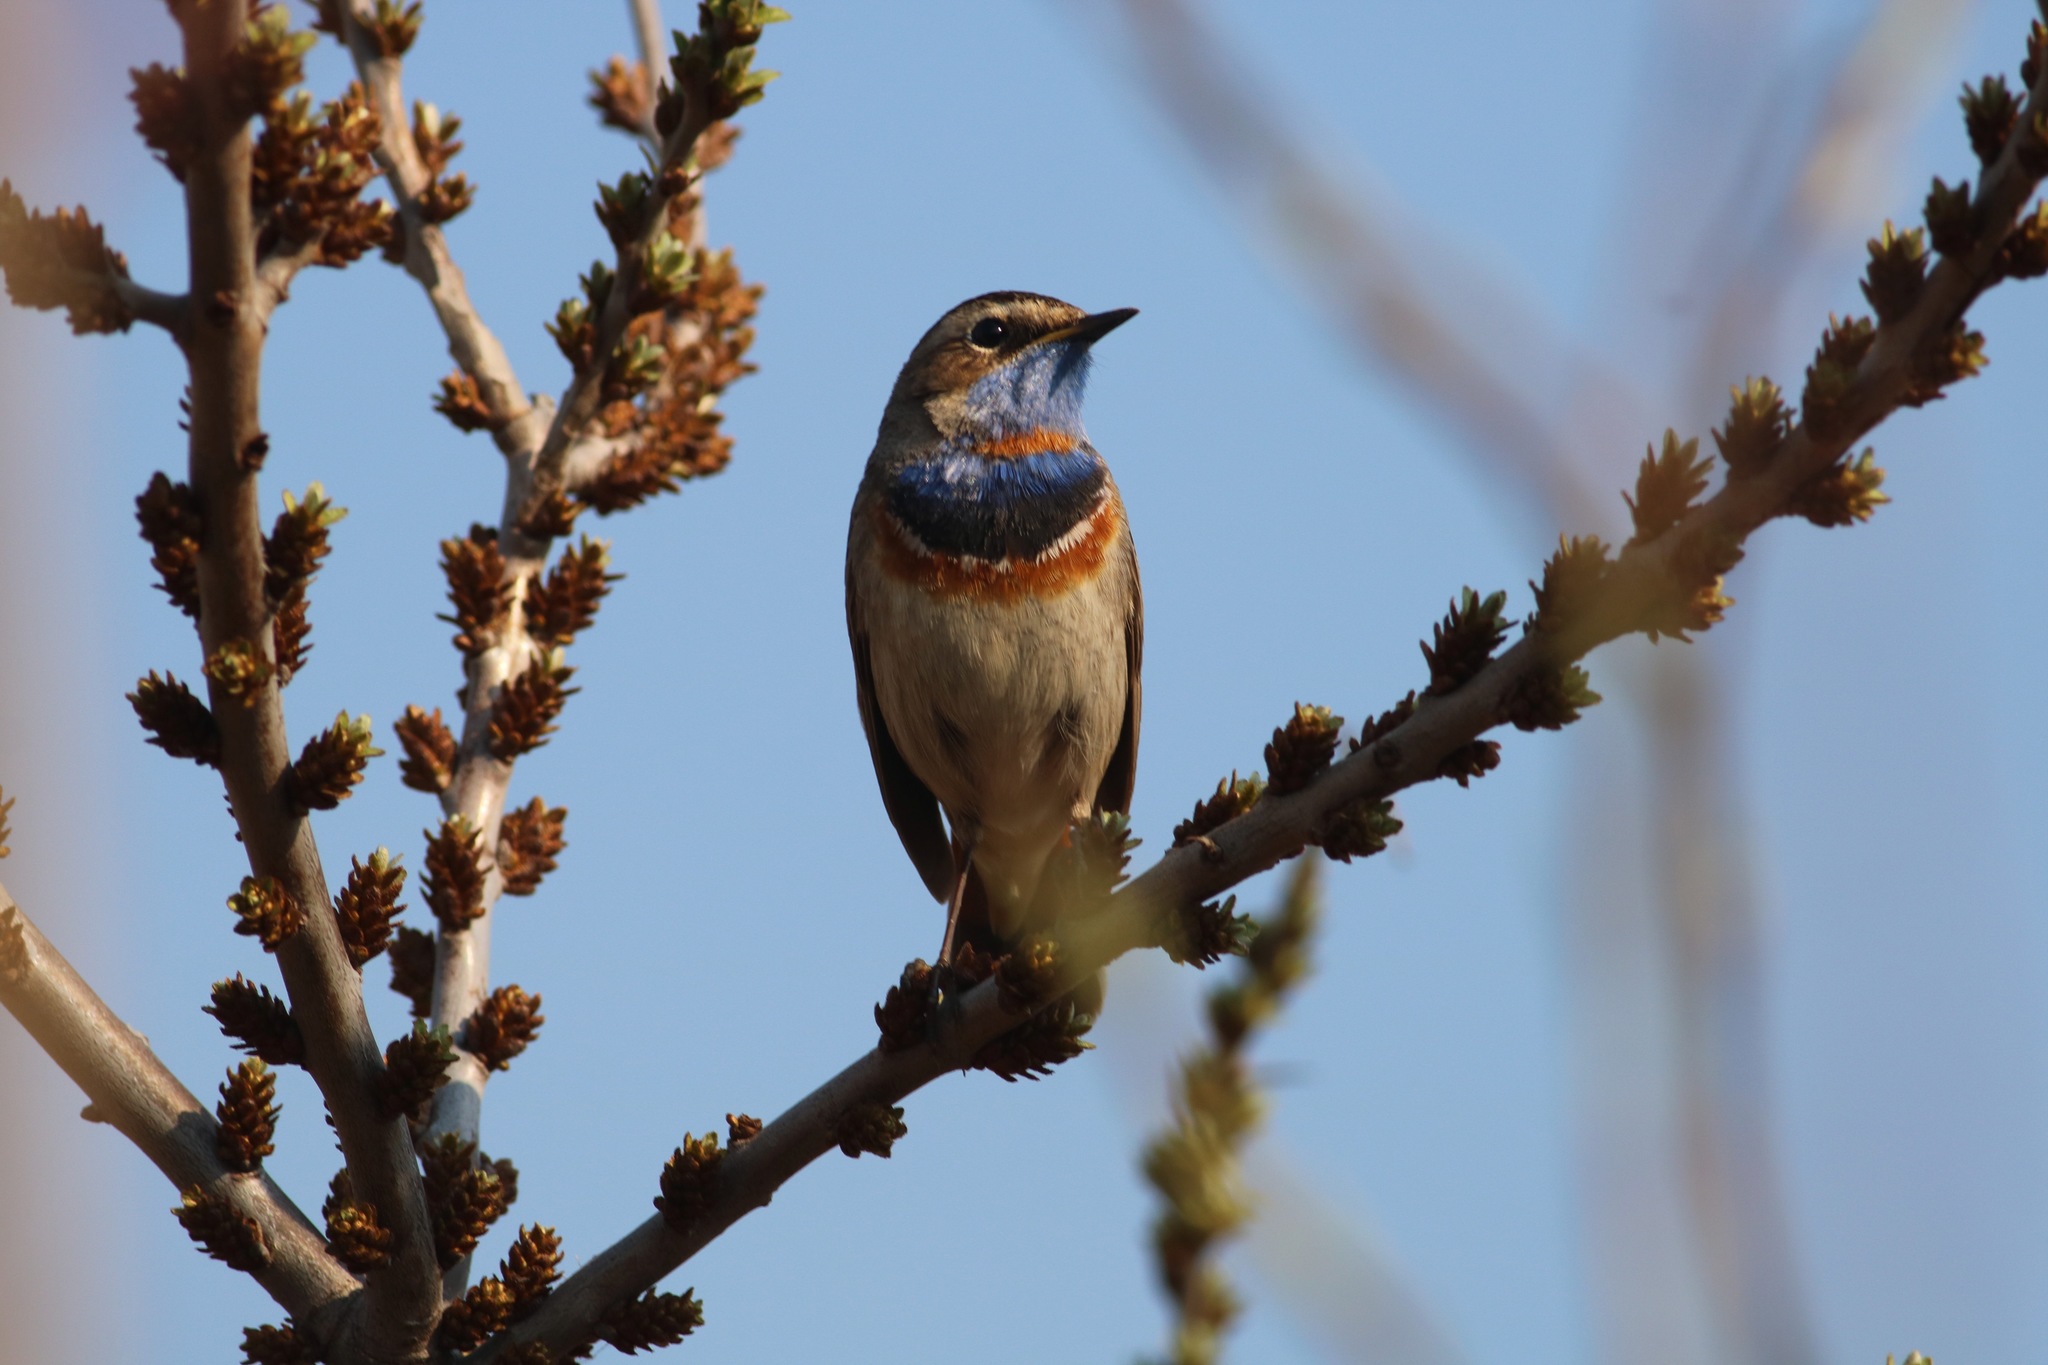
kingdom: Animalia
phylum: Chordata
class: Aves
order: Passeriformes
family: Muscicapidae
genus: Luscinia
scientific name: Luscinia svecica
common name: Bluethroat
